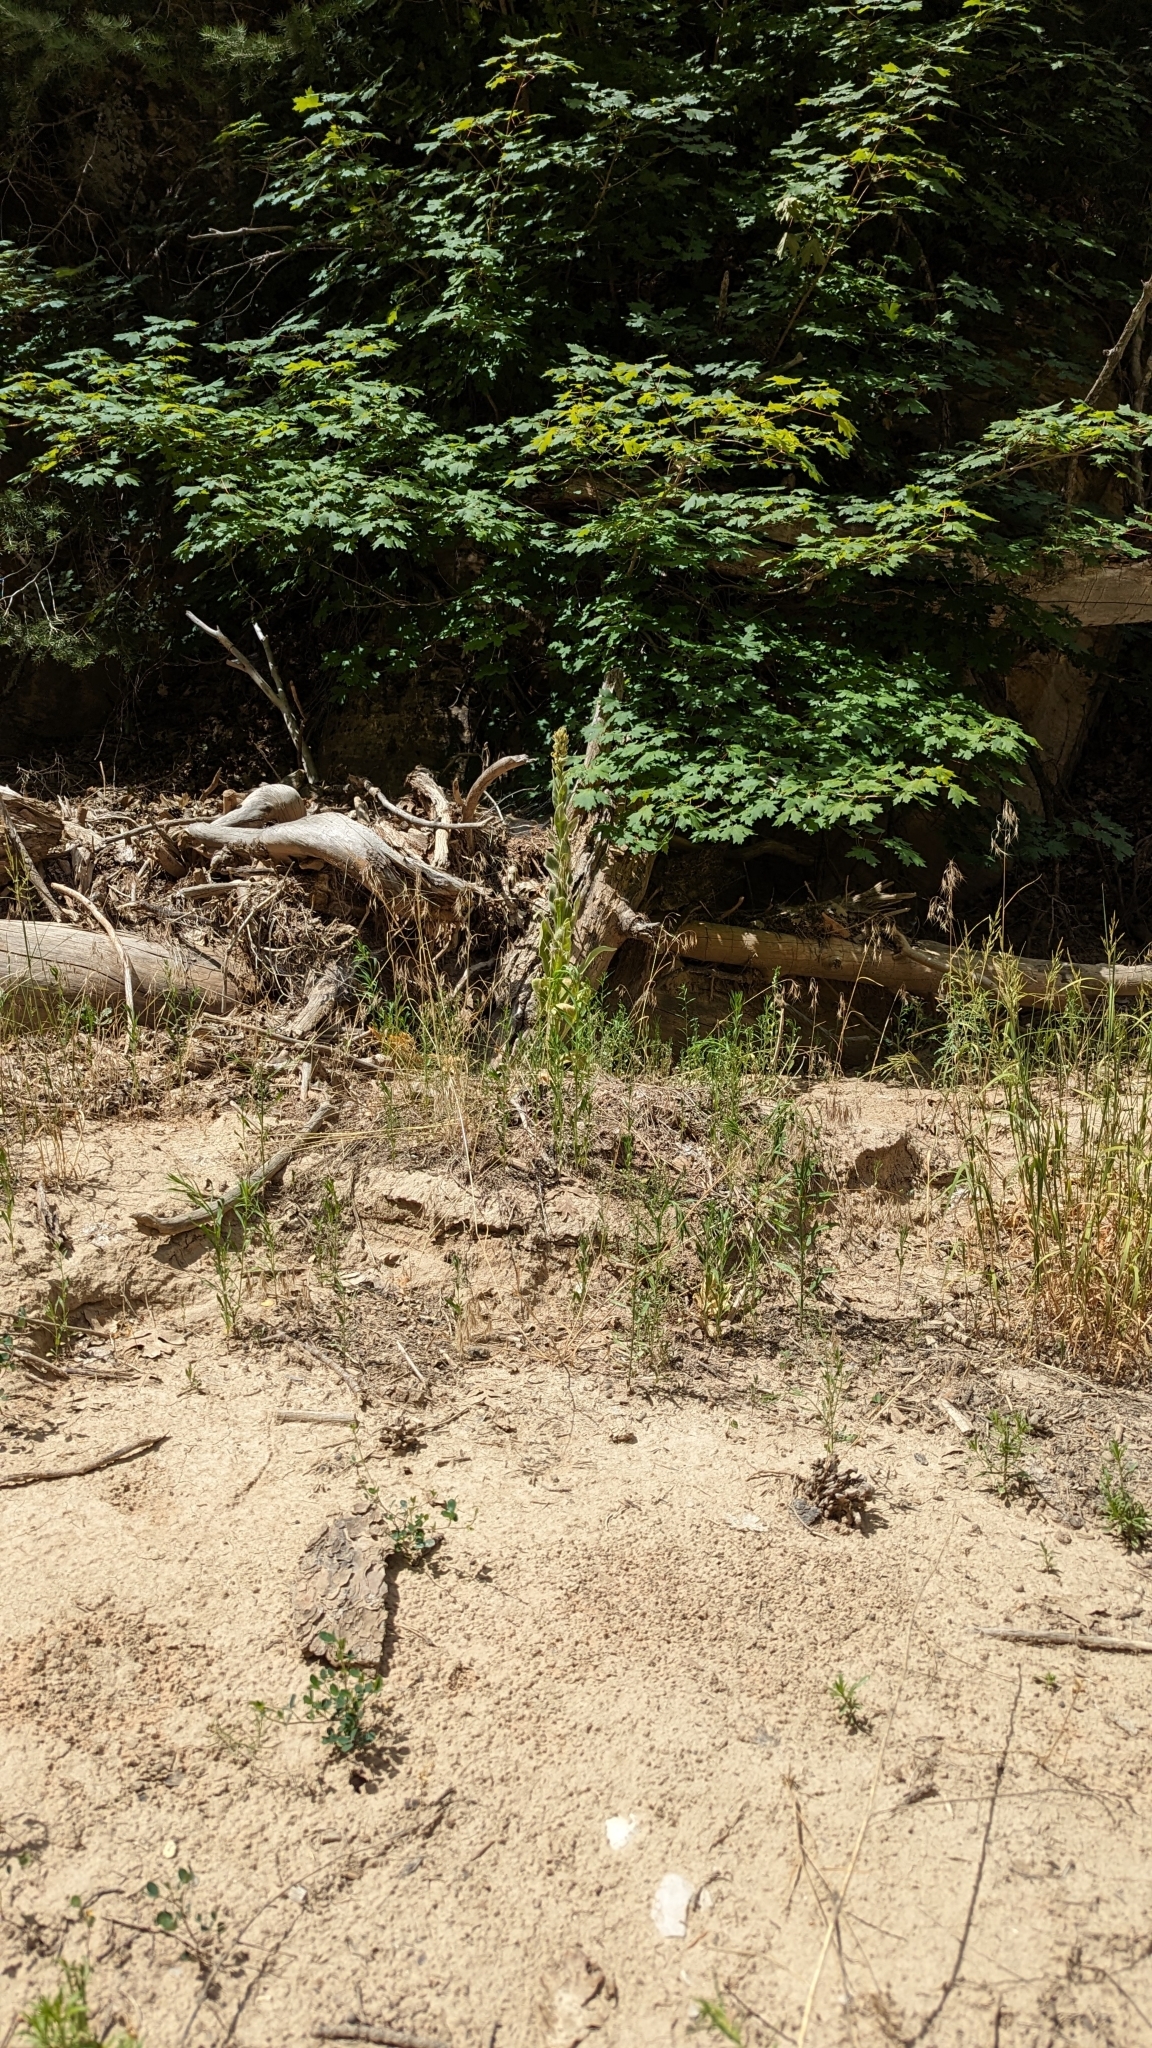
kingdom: Plantae
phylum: Tracheophyta
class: Magnoliopsida
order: Lamiales
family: Scrophulariaceae
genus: Verbascum
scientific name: Verbascum thapsus
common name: Common mullein
